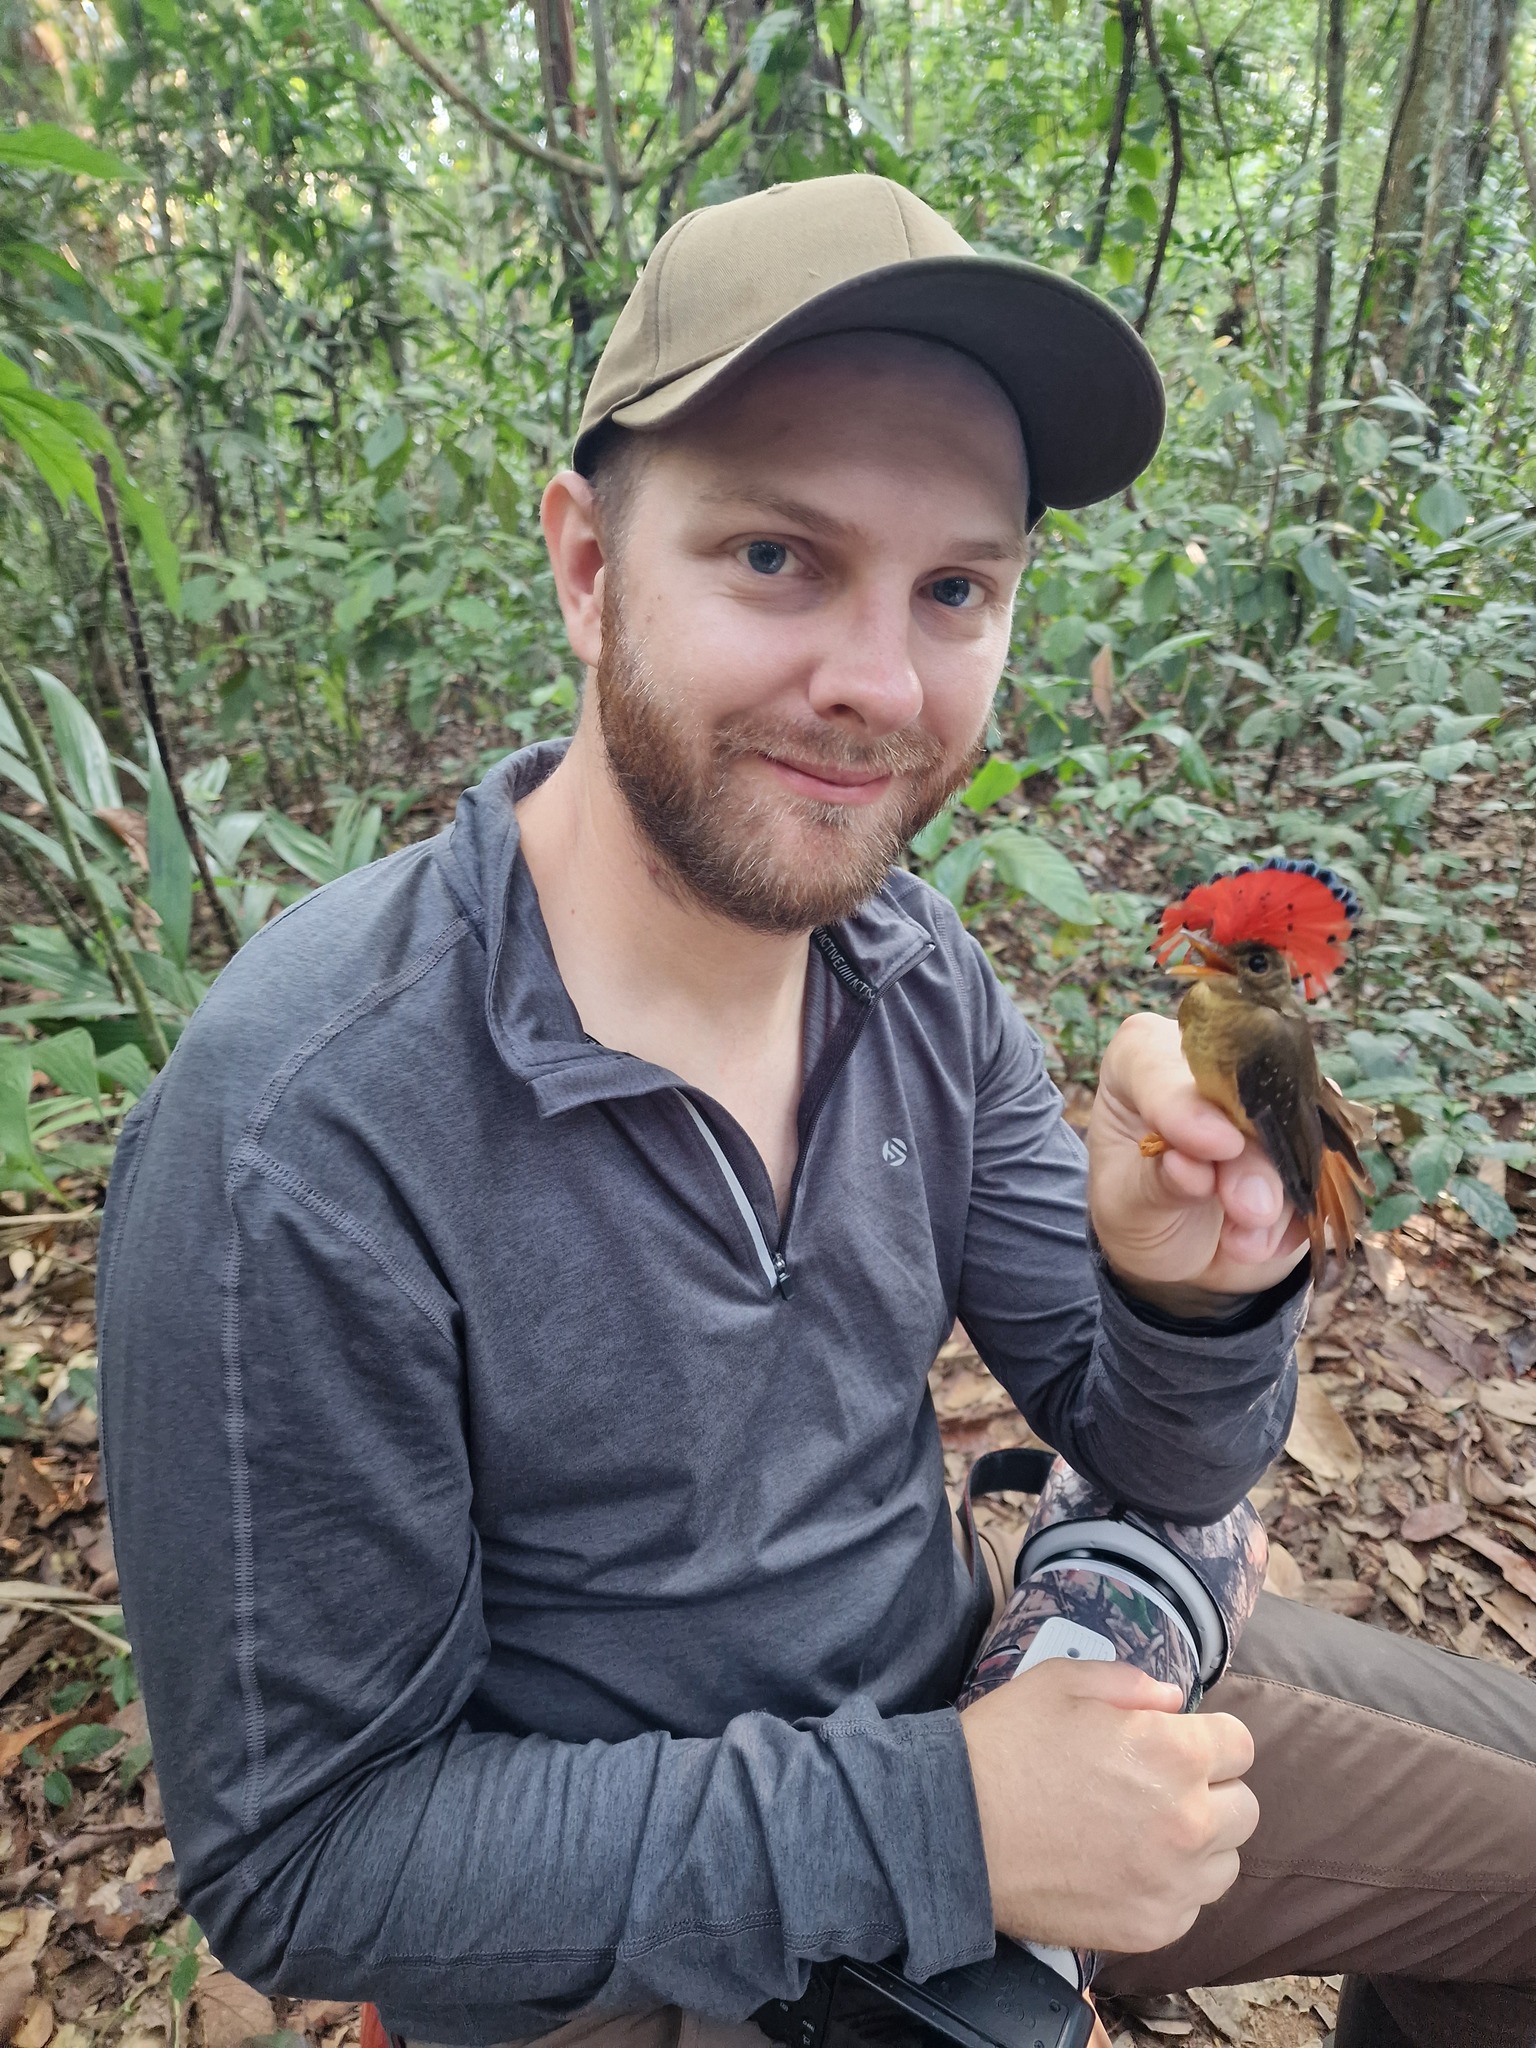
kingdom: Animalia
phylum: Chordata
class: Aves
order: Passeriformes
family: Tyrannidae
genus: Onychorhynchus
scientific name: Onychorhynchus coronatus
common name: Royal flycatcher
